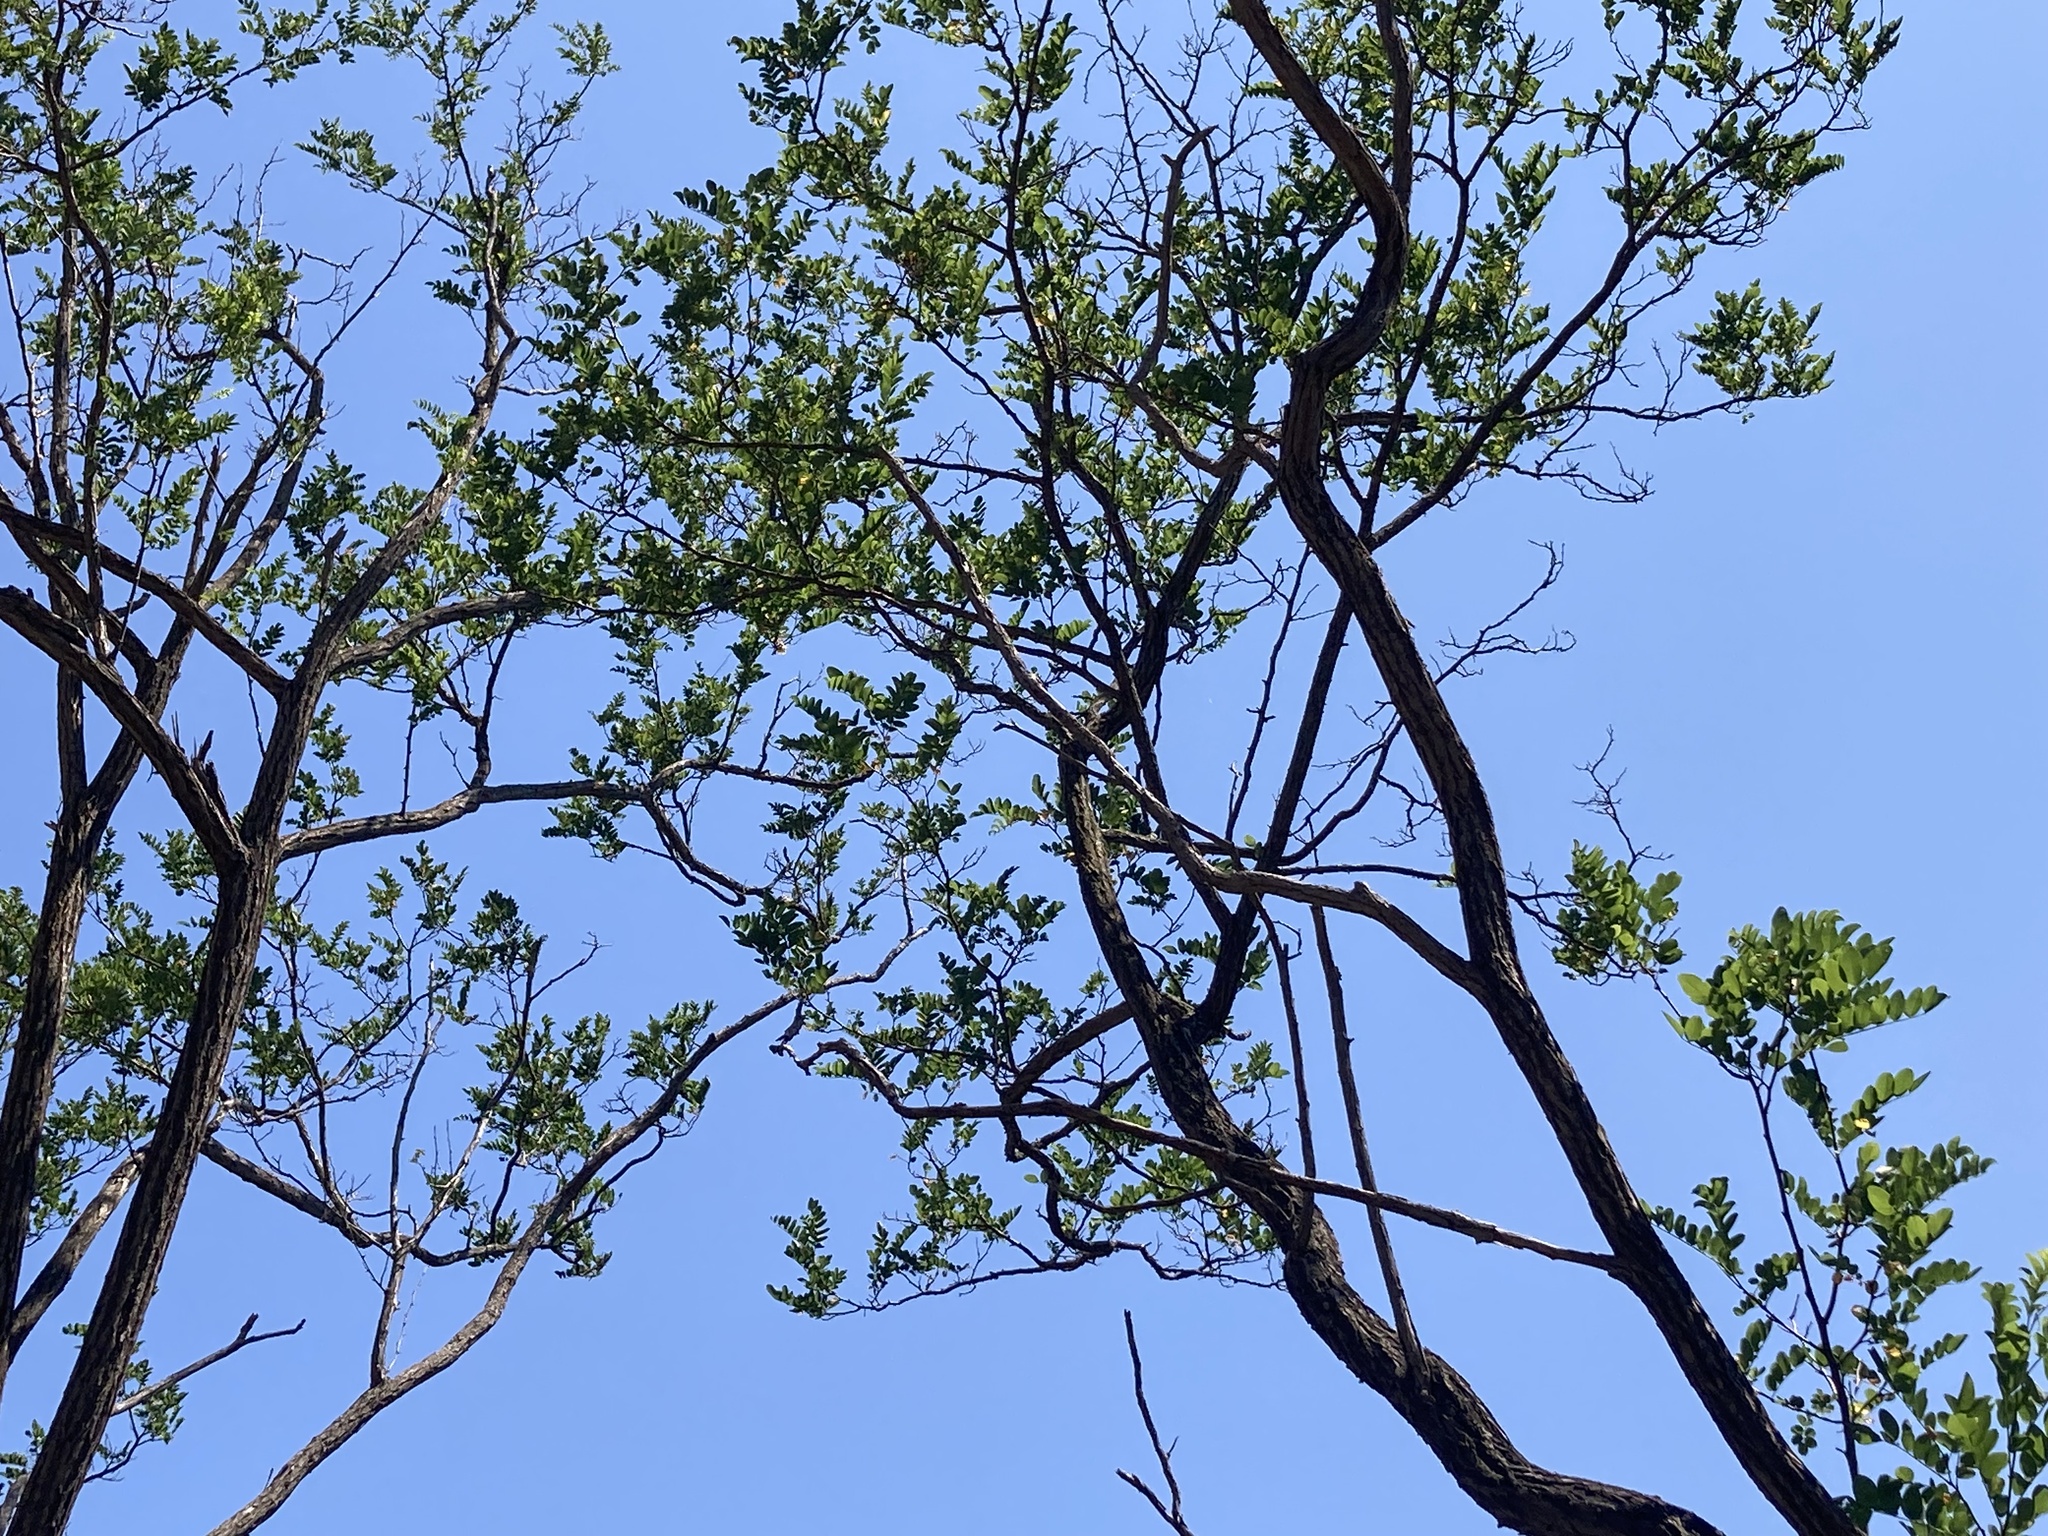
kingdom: Plantae
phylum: Tracheophyta
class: Magnoliopsida
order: Fabales
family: Fabaceae
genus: Robinia
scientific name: Robinia pseudoacacia
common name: Black locust
